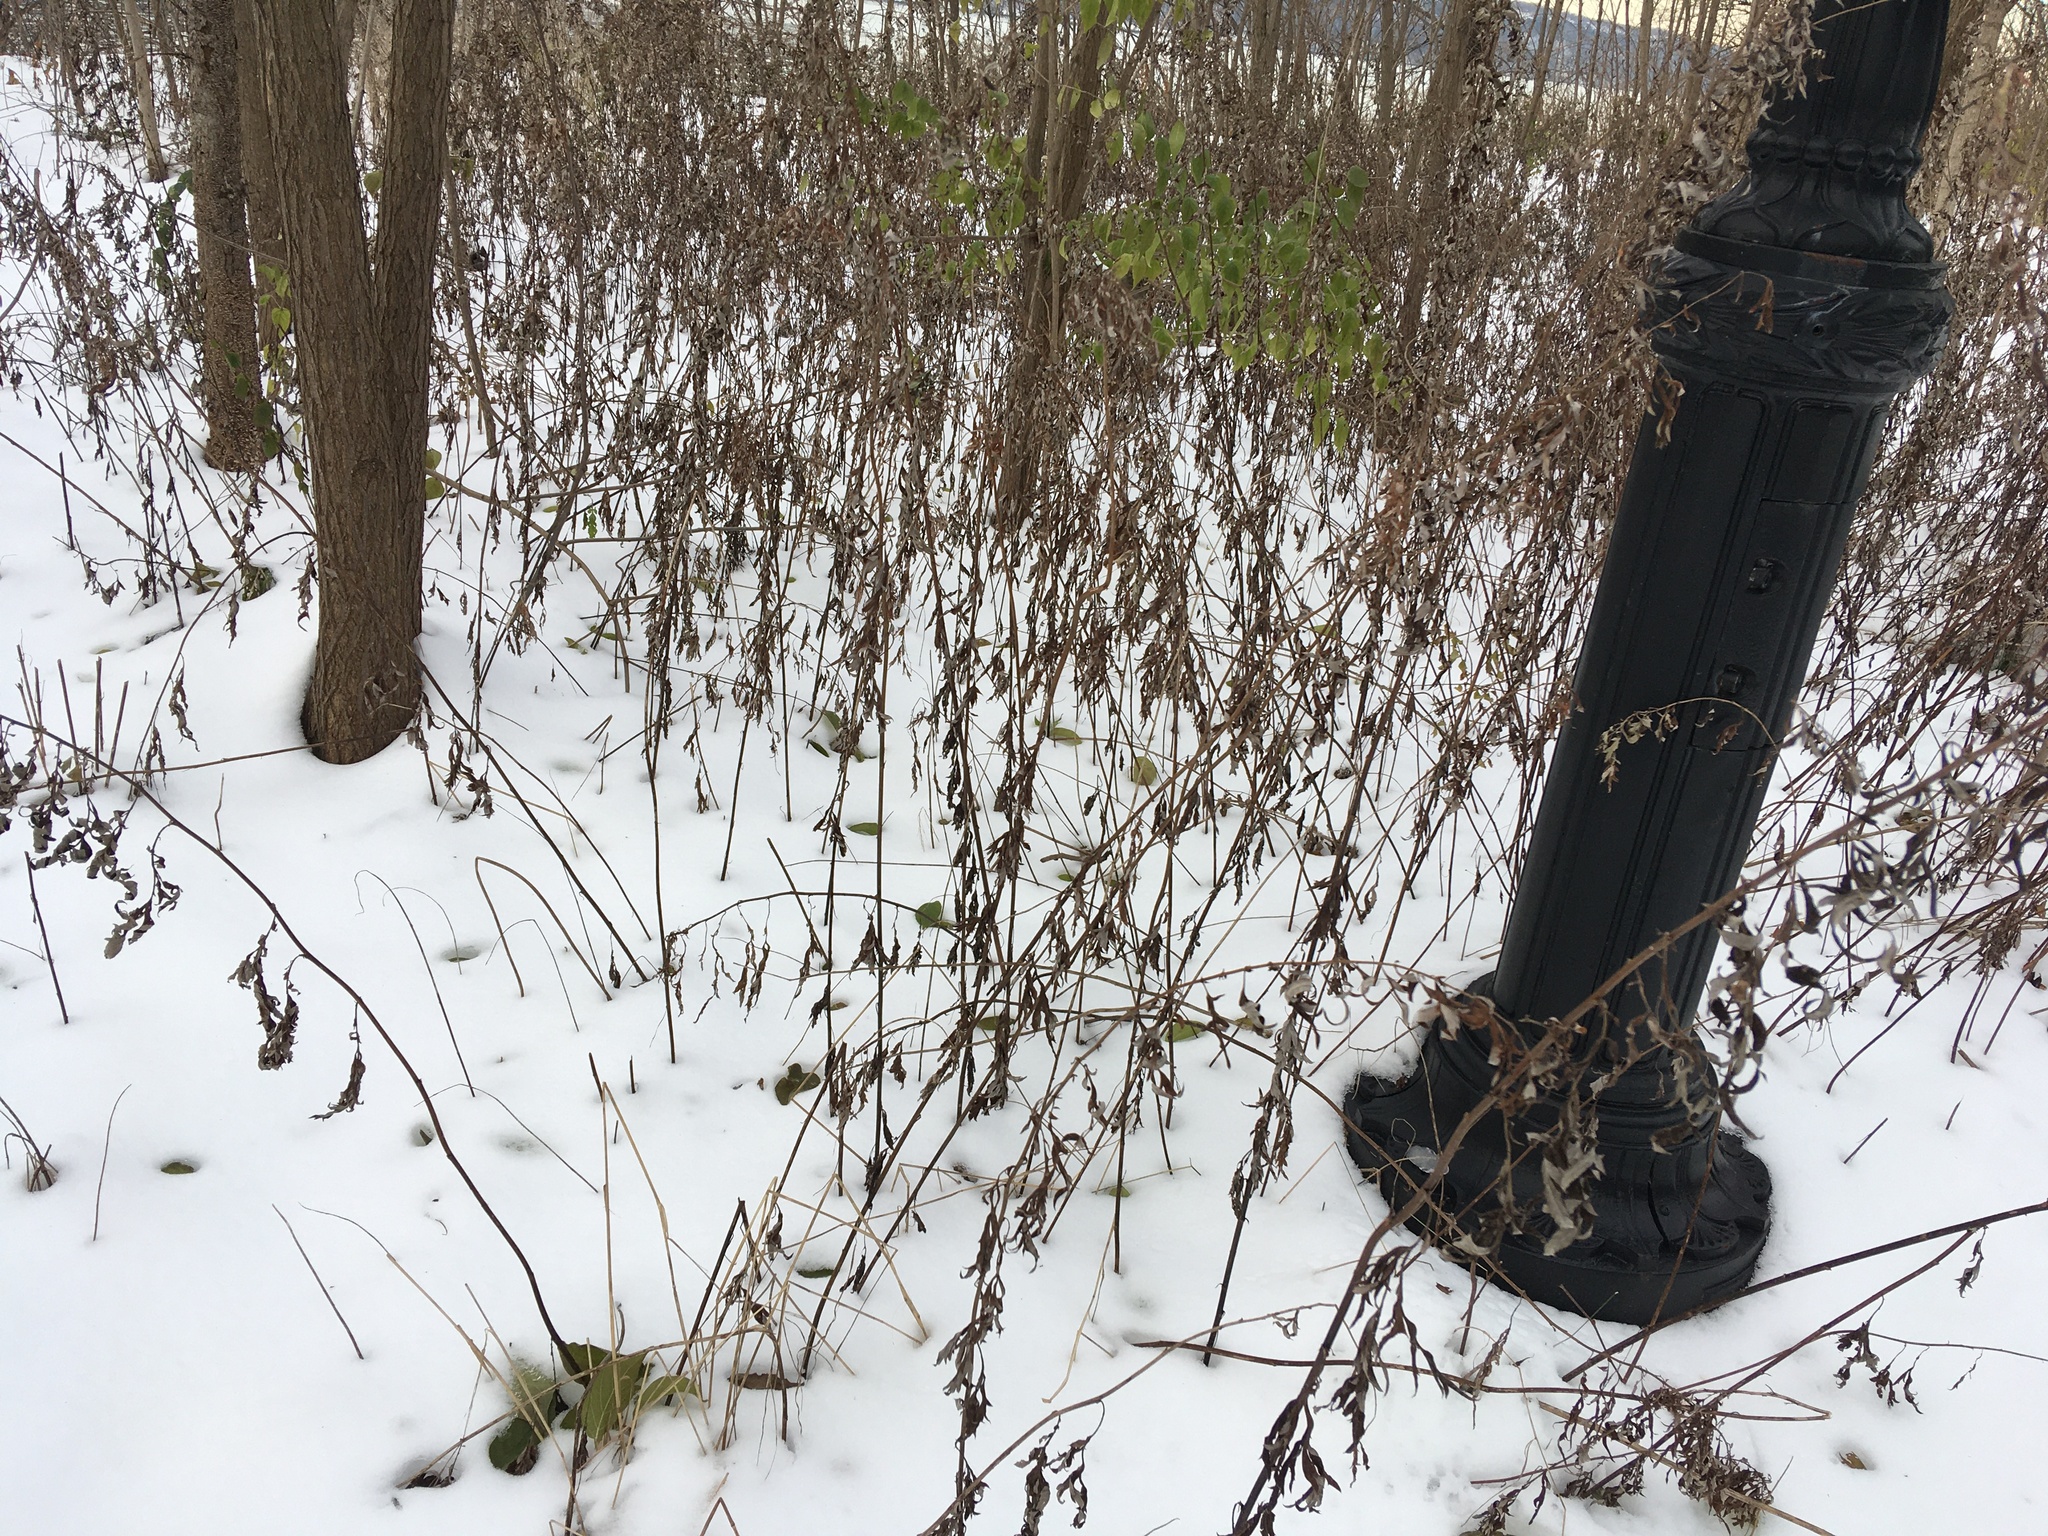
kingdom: Plantae
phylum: Tracheophyta
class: Magnoliopsida
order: Asterales
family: Asteraceae
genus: Artemisia
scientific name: Artemisia vulgaris
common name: Mugwort
